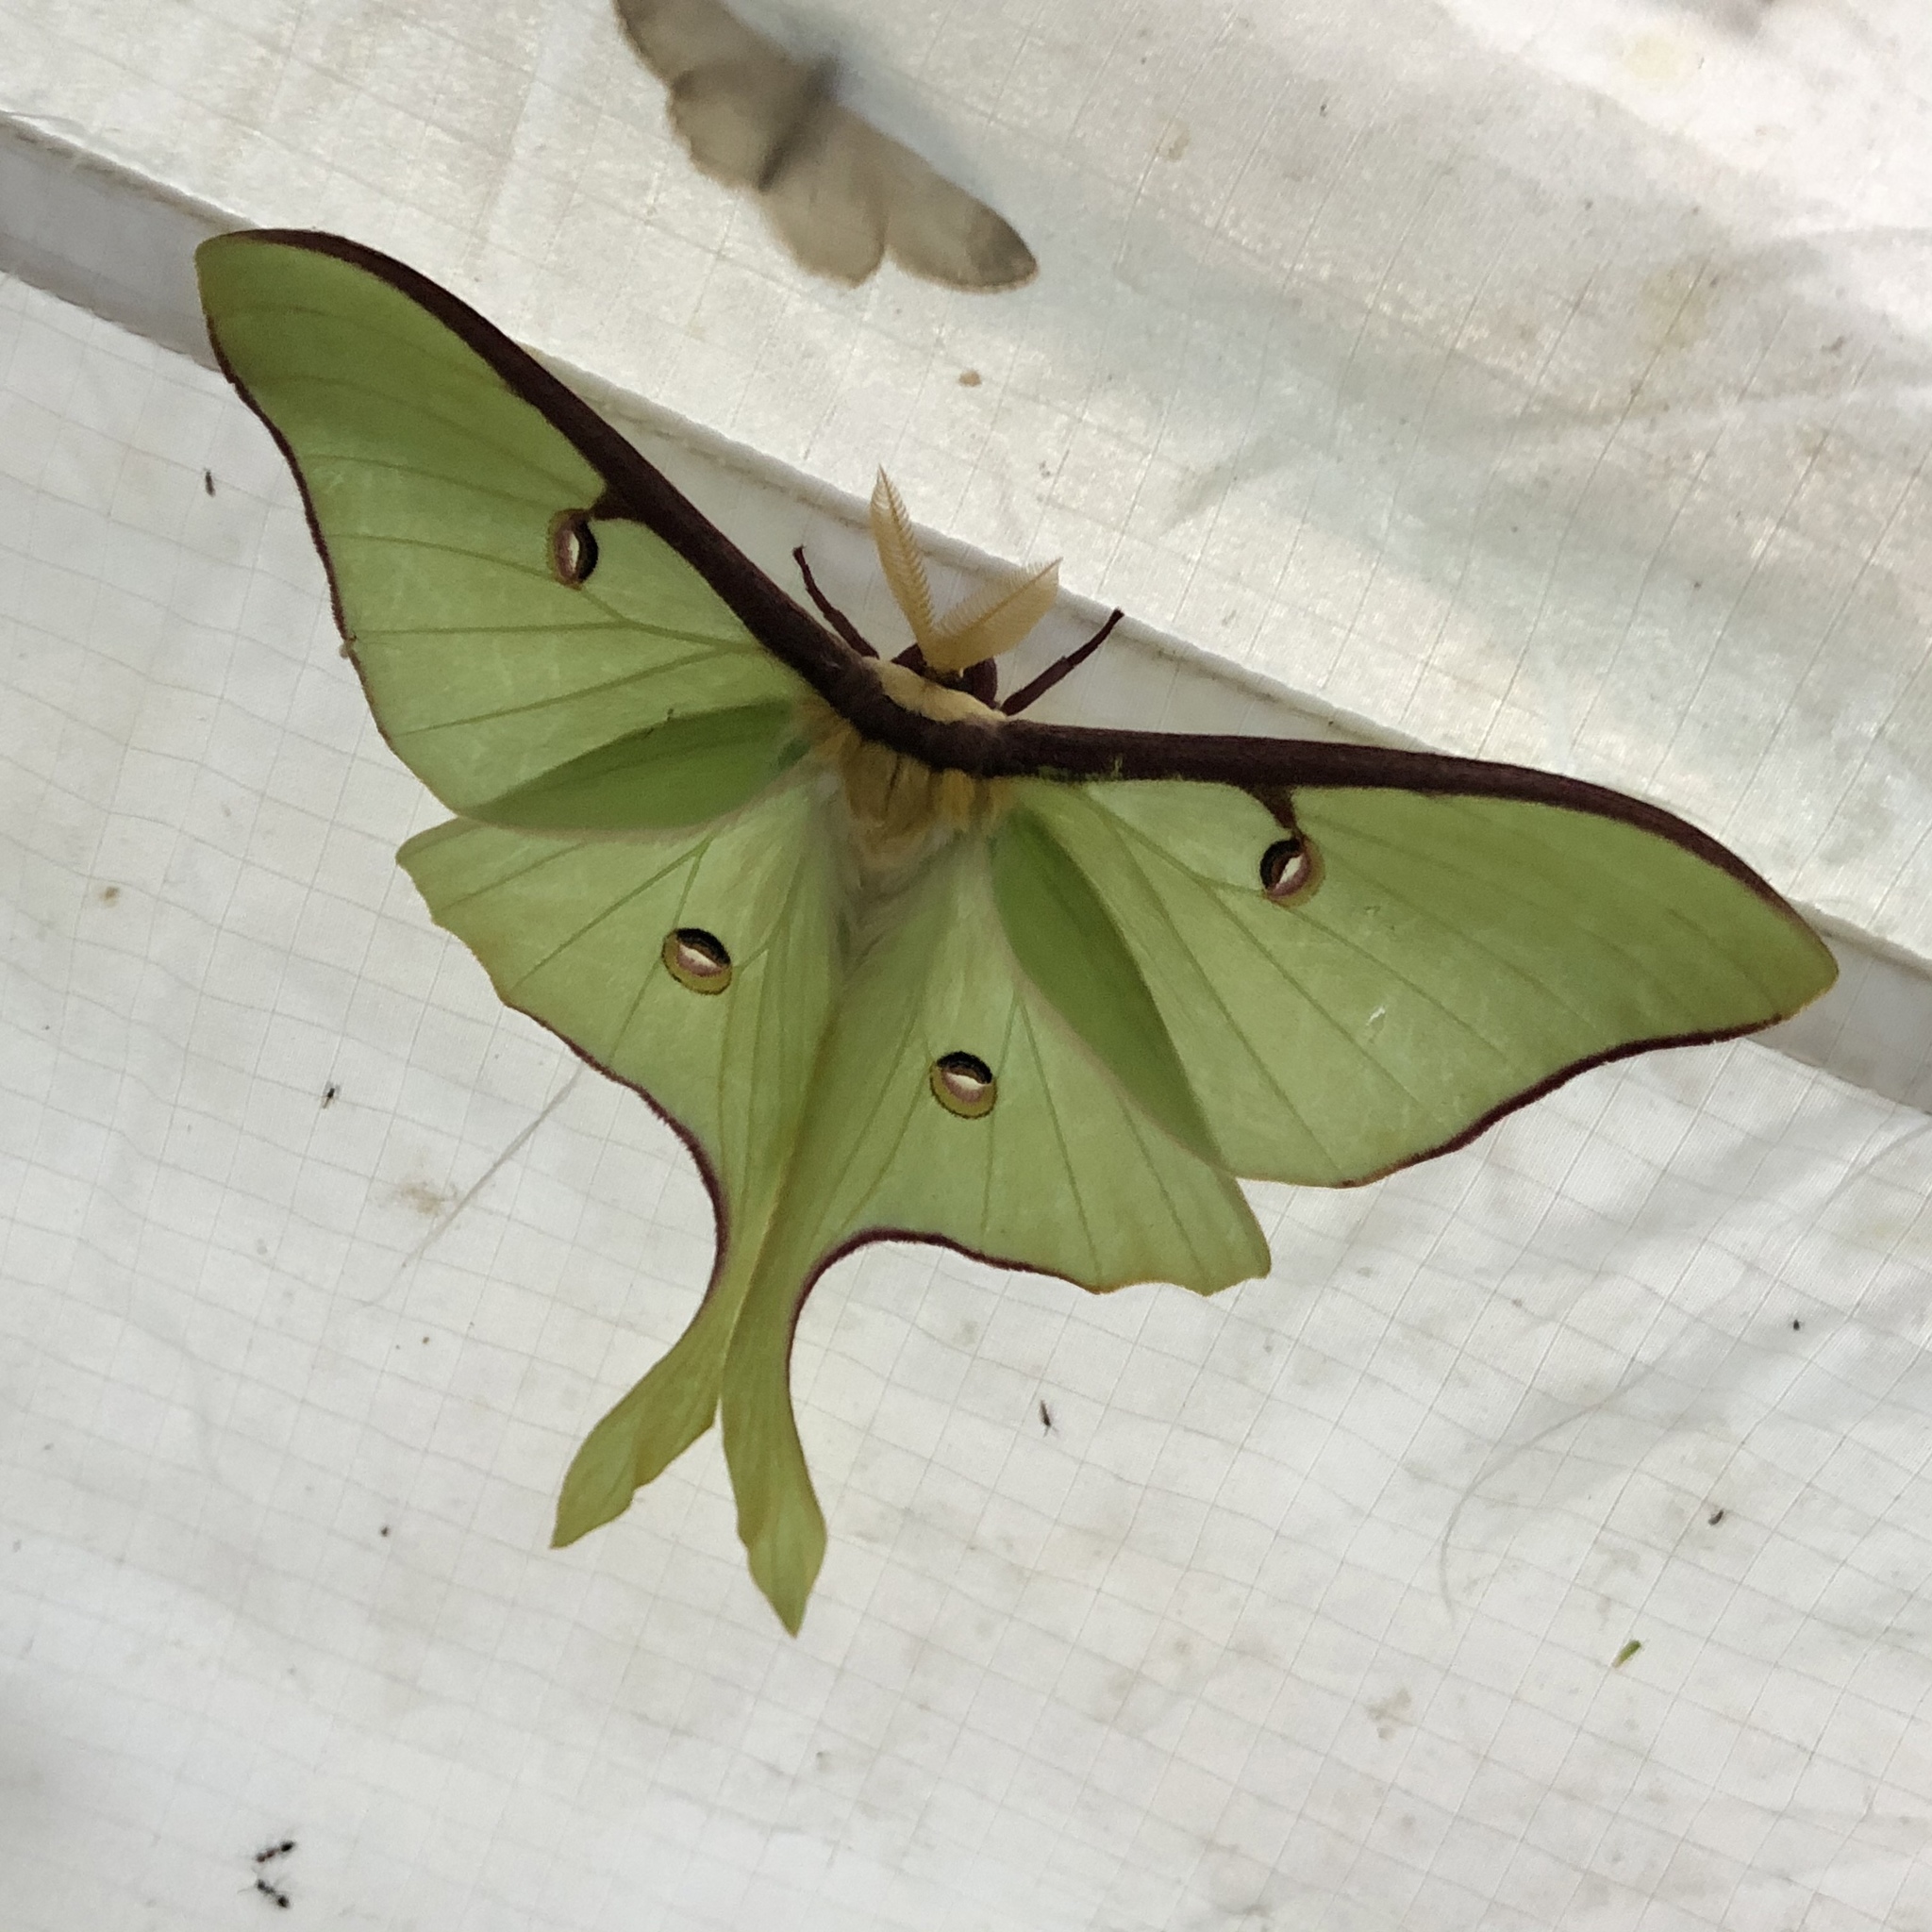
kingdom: Animalia
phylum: Arthropoda
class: Insecta
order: Lepidoptera
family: Saturniidae
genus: Actias
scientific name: Actias luna
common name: Luna moth
